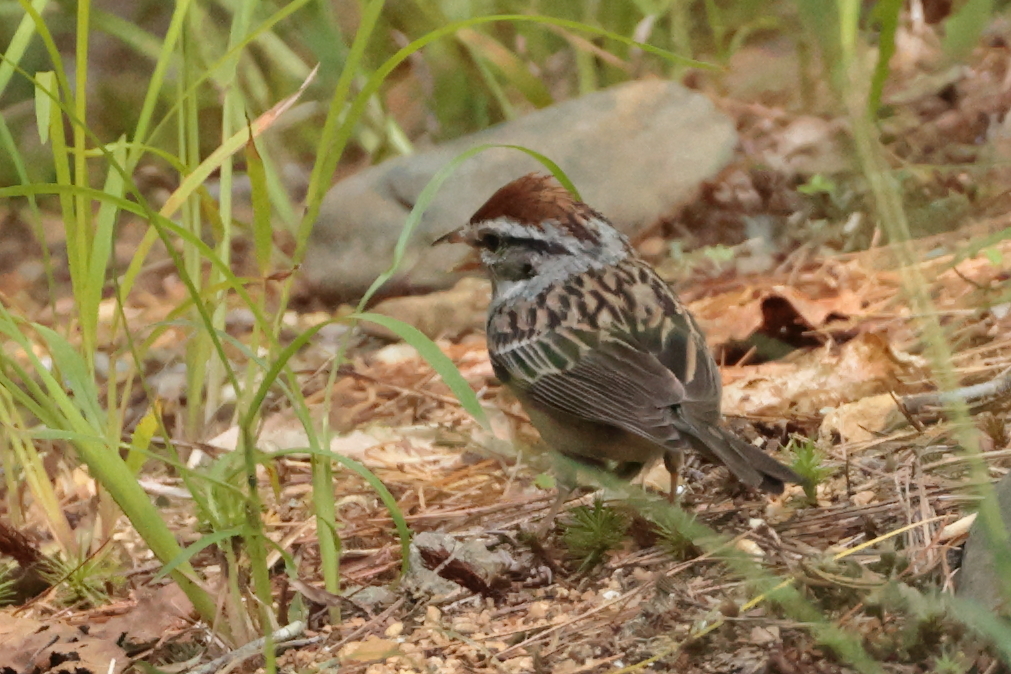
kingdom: Animalia
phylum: Chordata
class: Aves
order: Passeriformes
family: Passerellidae
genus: Spizella
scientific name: Spizella passerina
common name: Chipping sparrow
